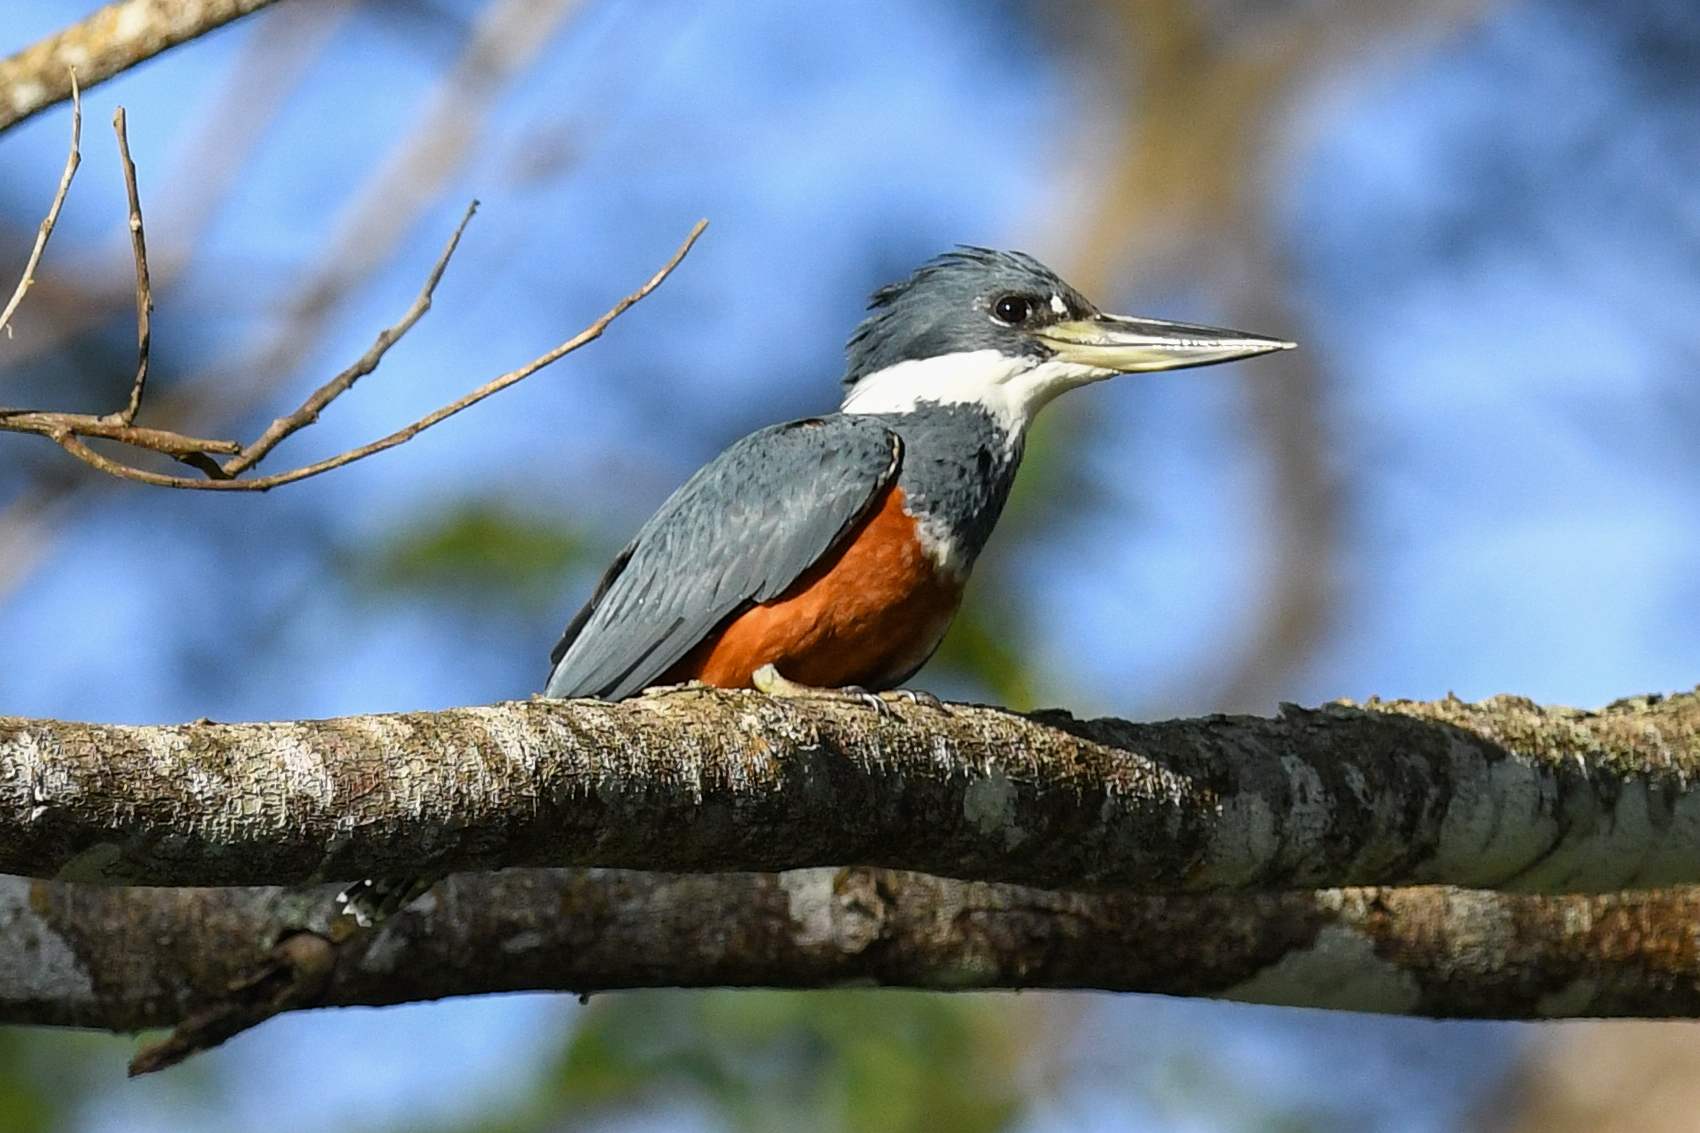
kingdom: Animalia
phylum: Chordata
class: Aves
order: Coraciiformes
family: Alcedinidae
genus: Megaceryle
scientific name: Megaceryle torquata
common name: Ringed kingfisher
